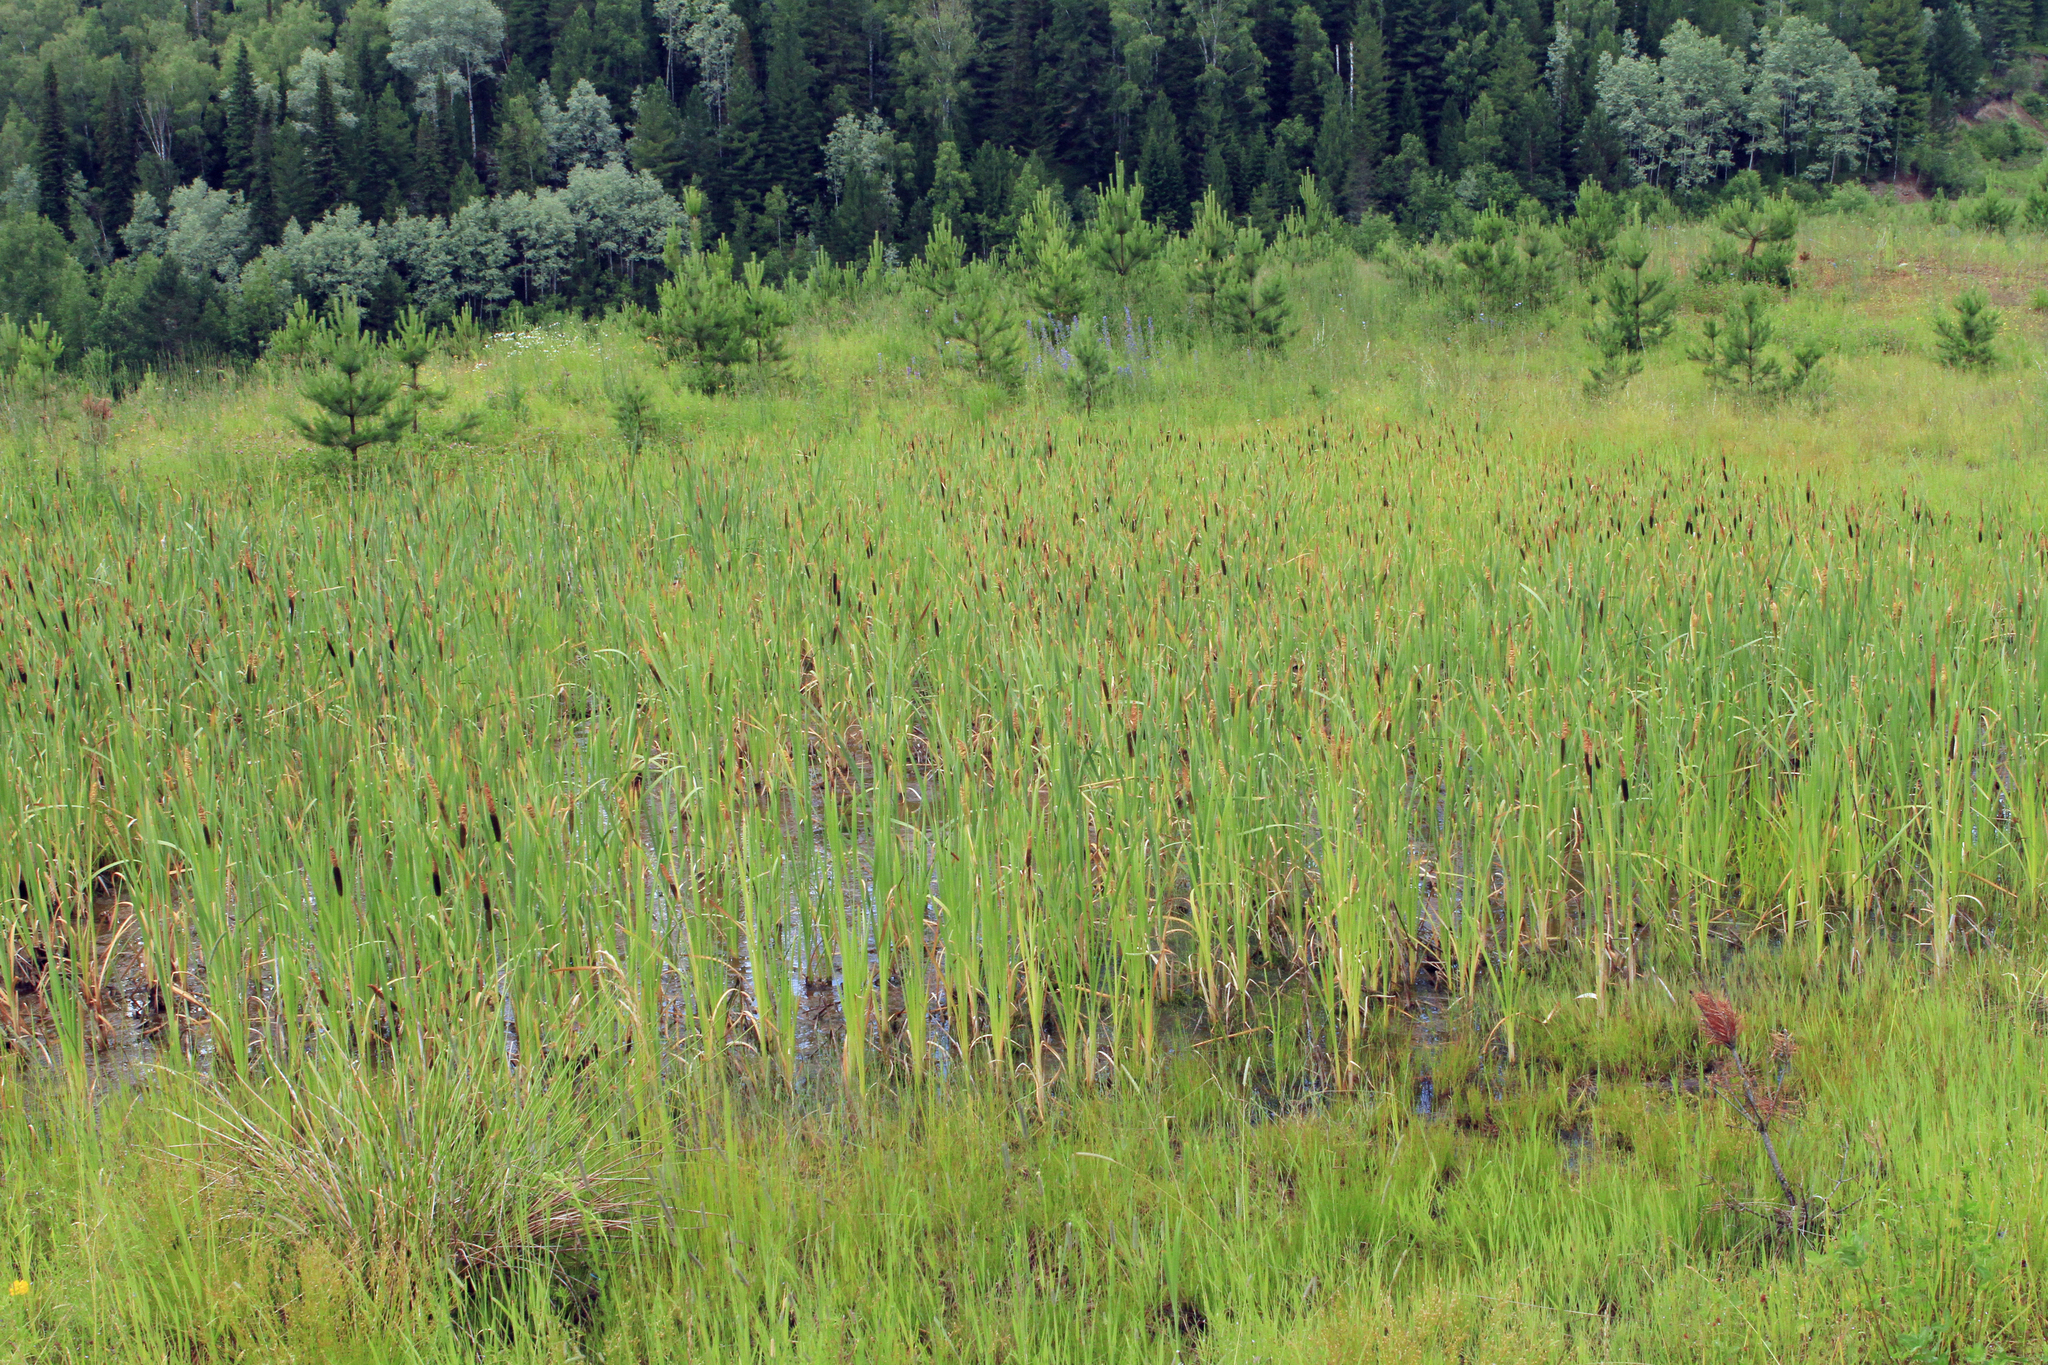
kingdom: Plantae
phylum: Tracheophyta
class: Liliopsida
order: Poales
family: Typhaceae
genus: Typha
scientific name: Typha latifolia
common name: Broadleaf cattail
